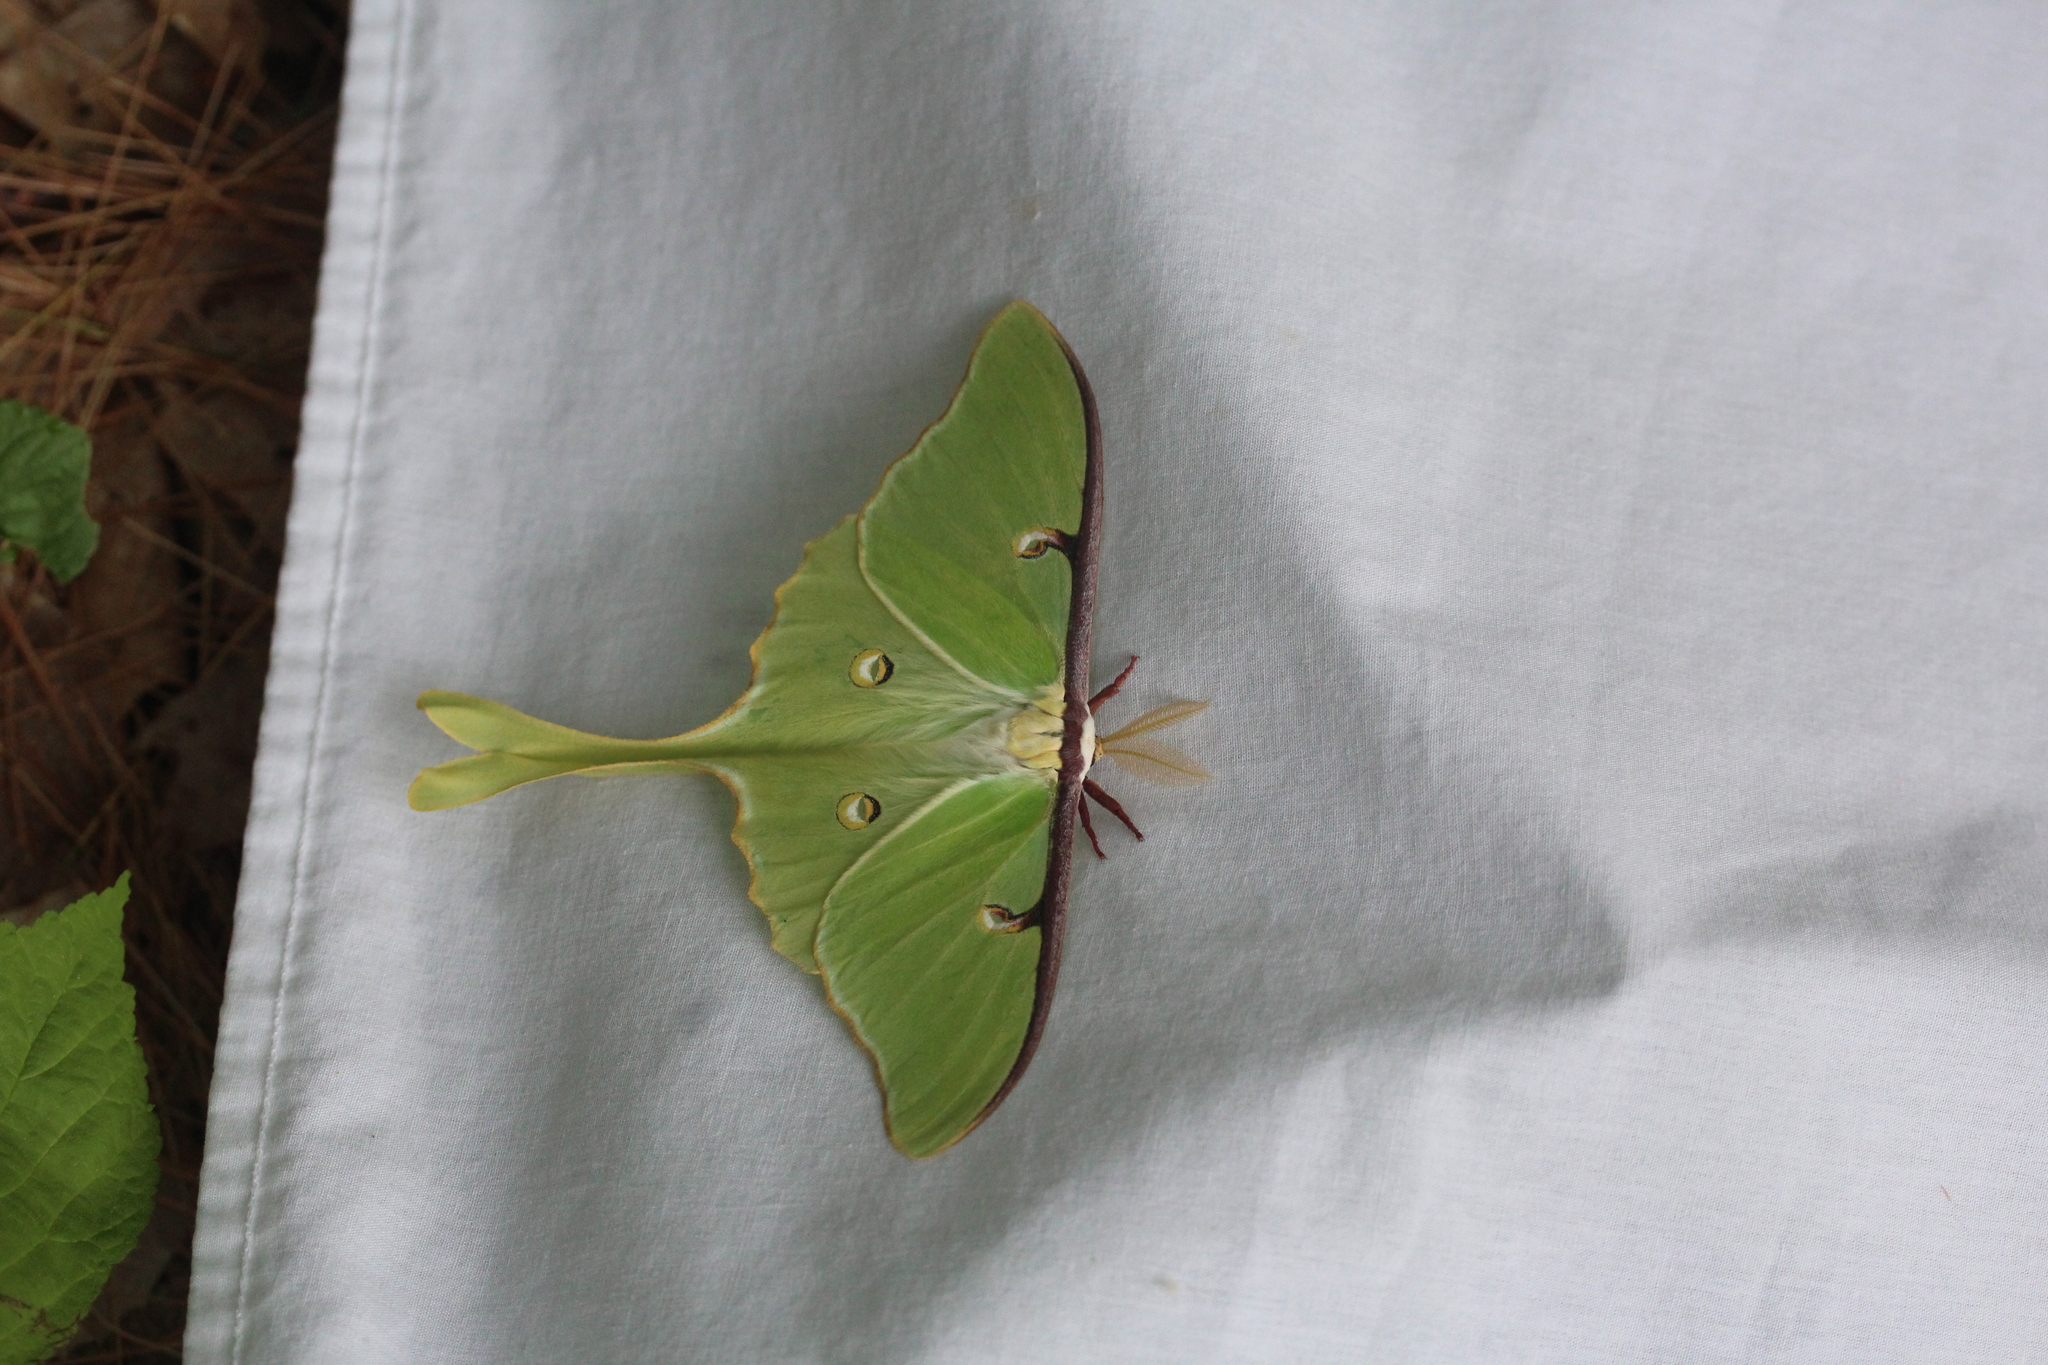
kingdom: Animalia
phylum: Arthropoda
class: Insecta
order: Lepidoptera
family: Saturniidae
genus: Actias
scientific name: Actias luna
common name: Luna moth
